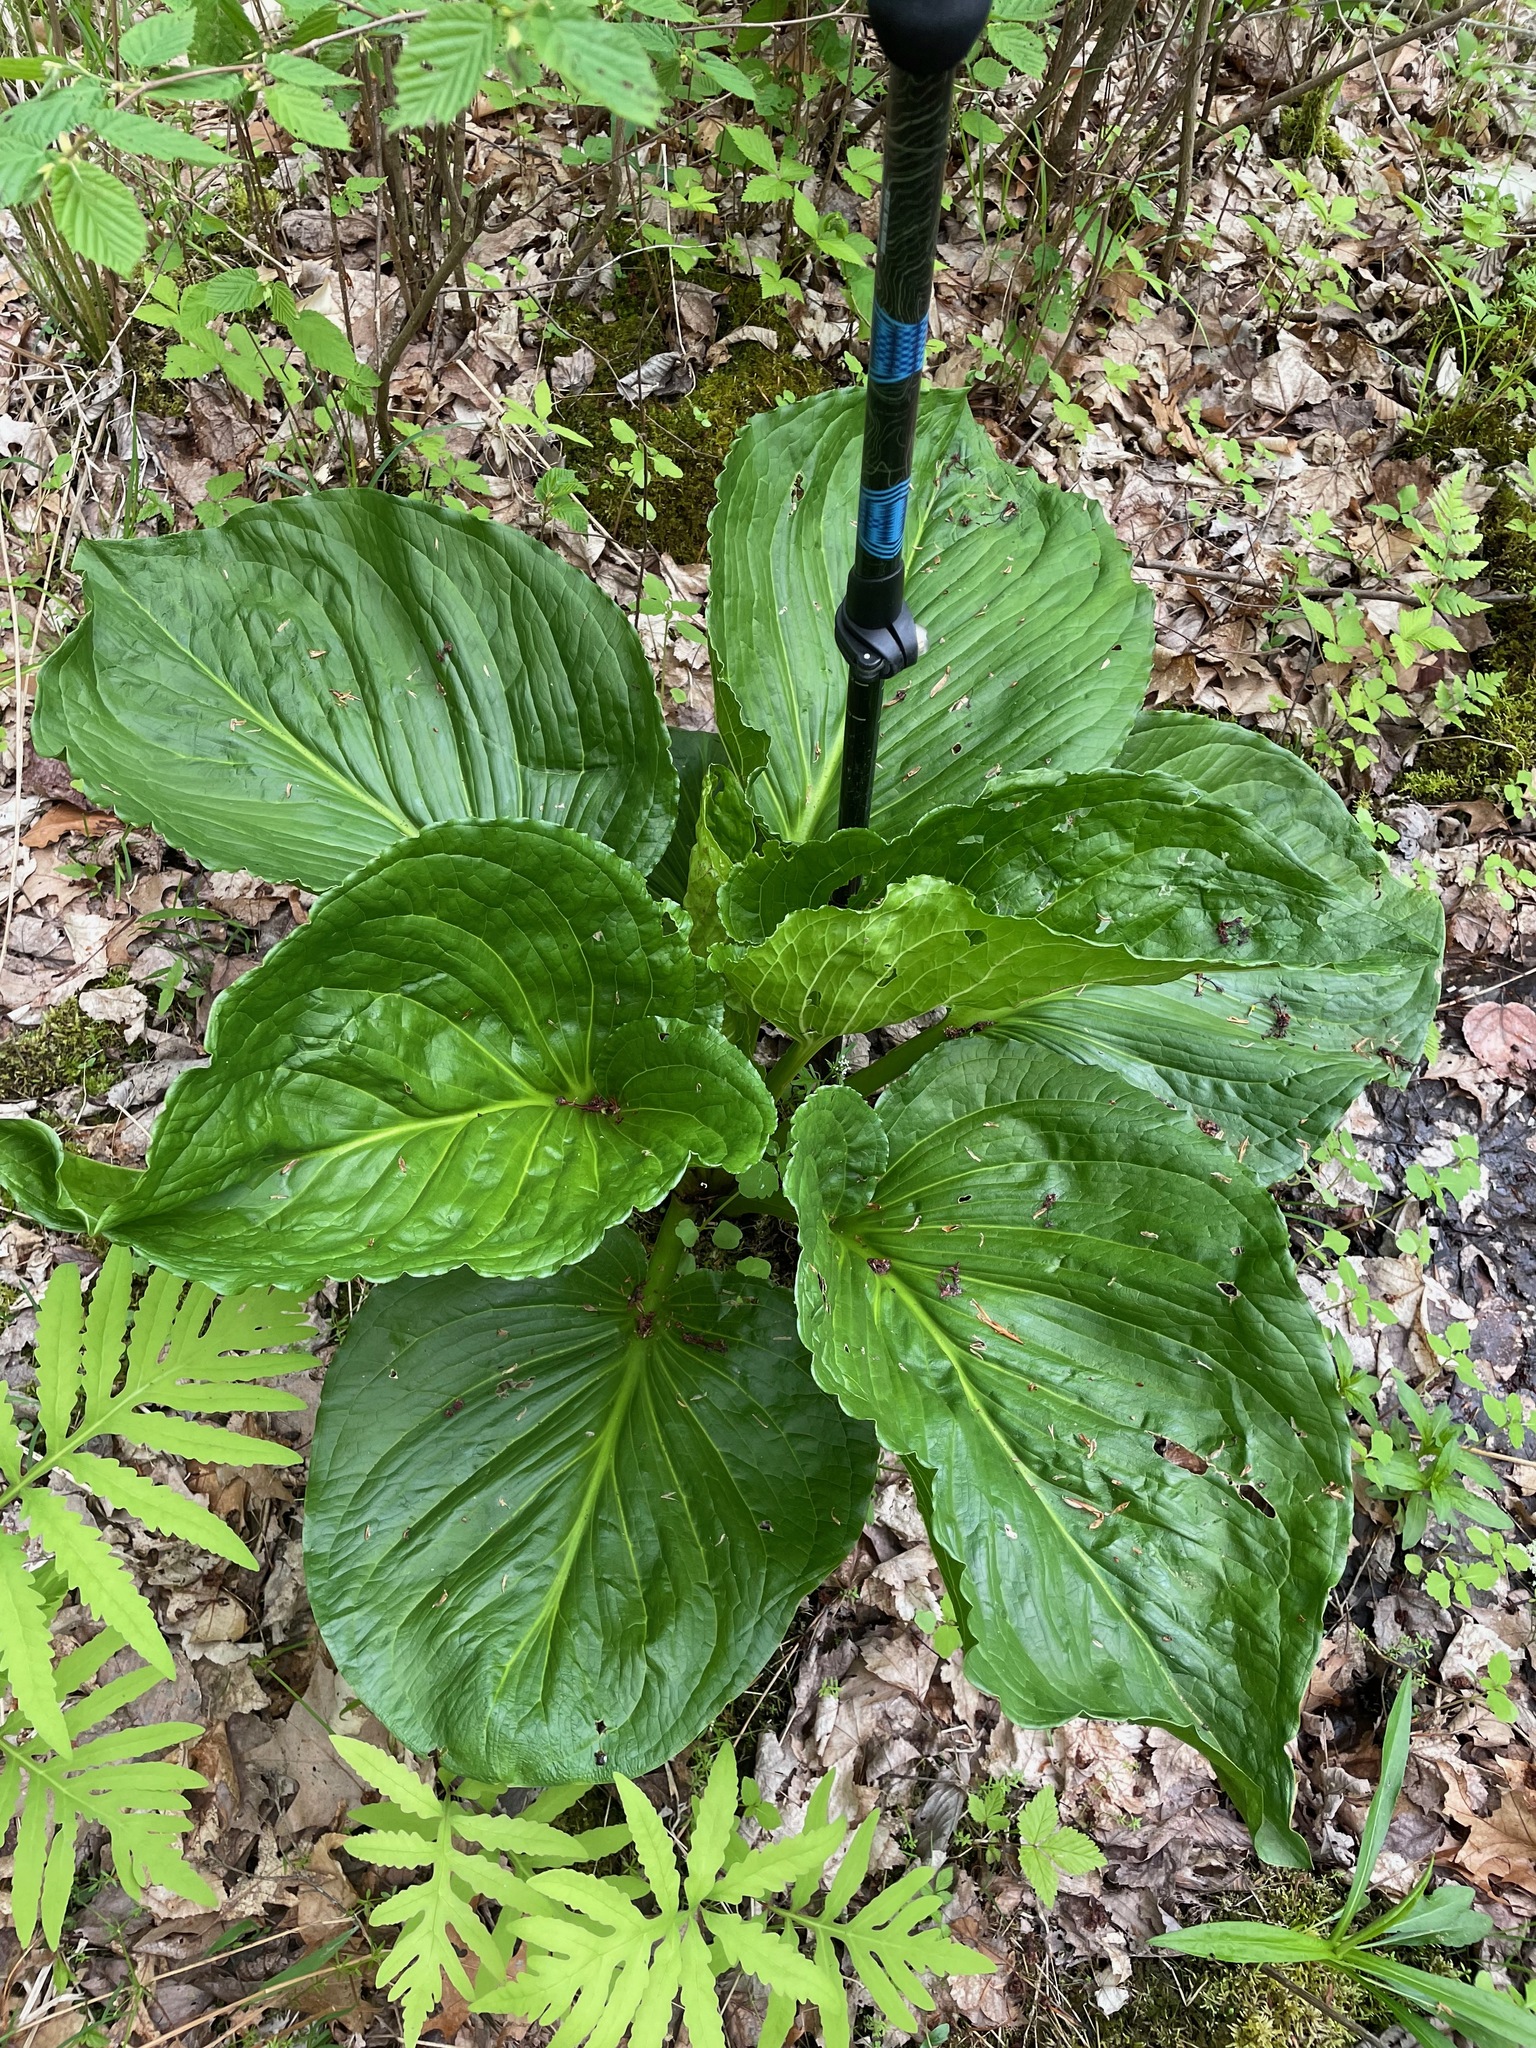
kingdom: Plantae
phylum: Tracheophyta
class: Liliopsida
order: Alismatales
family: Araceae
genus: Symplocarpus
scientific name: Symplocarpus foetidus
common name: Eastern skunk cabbage
